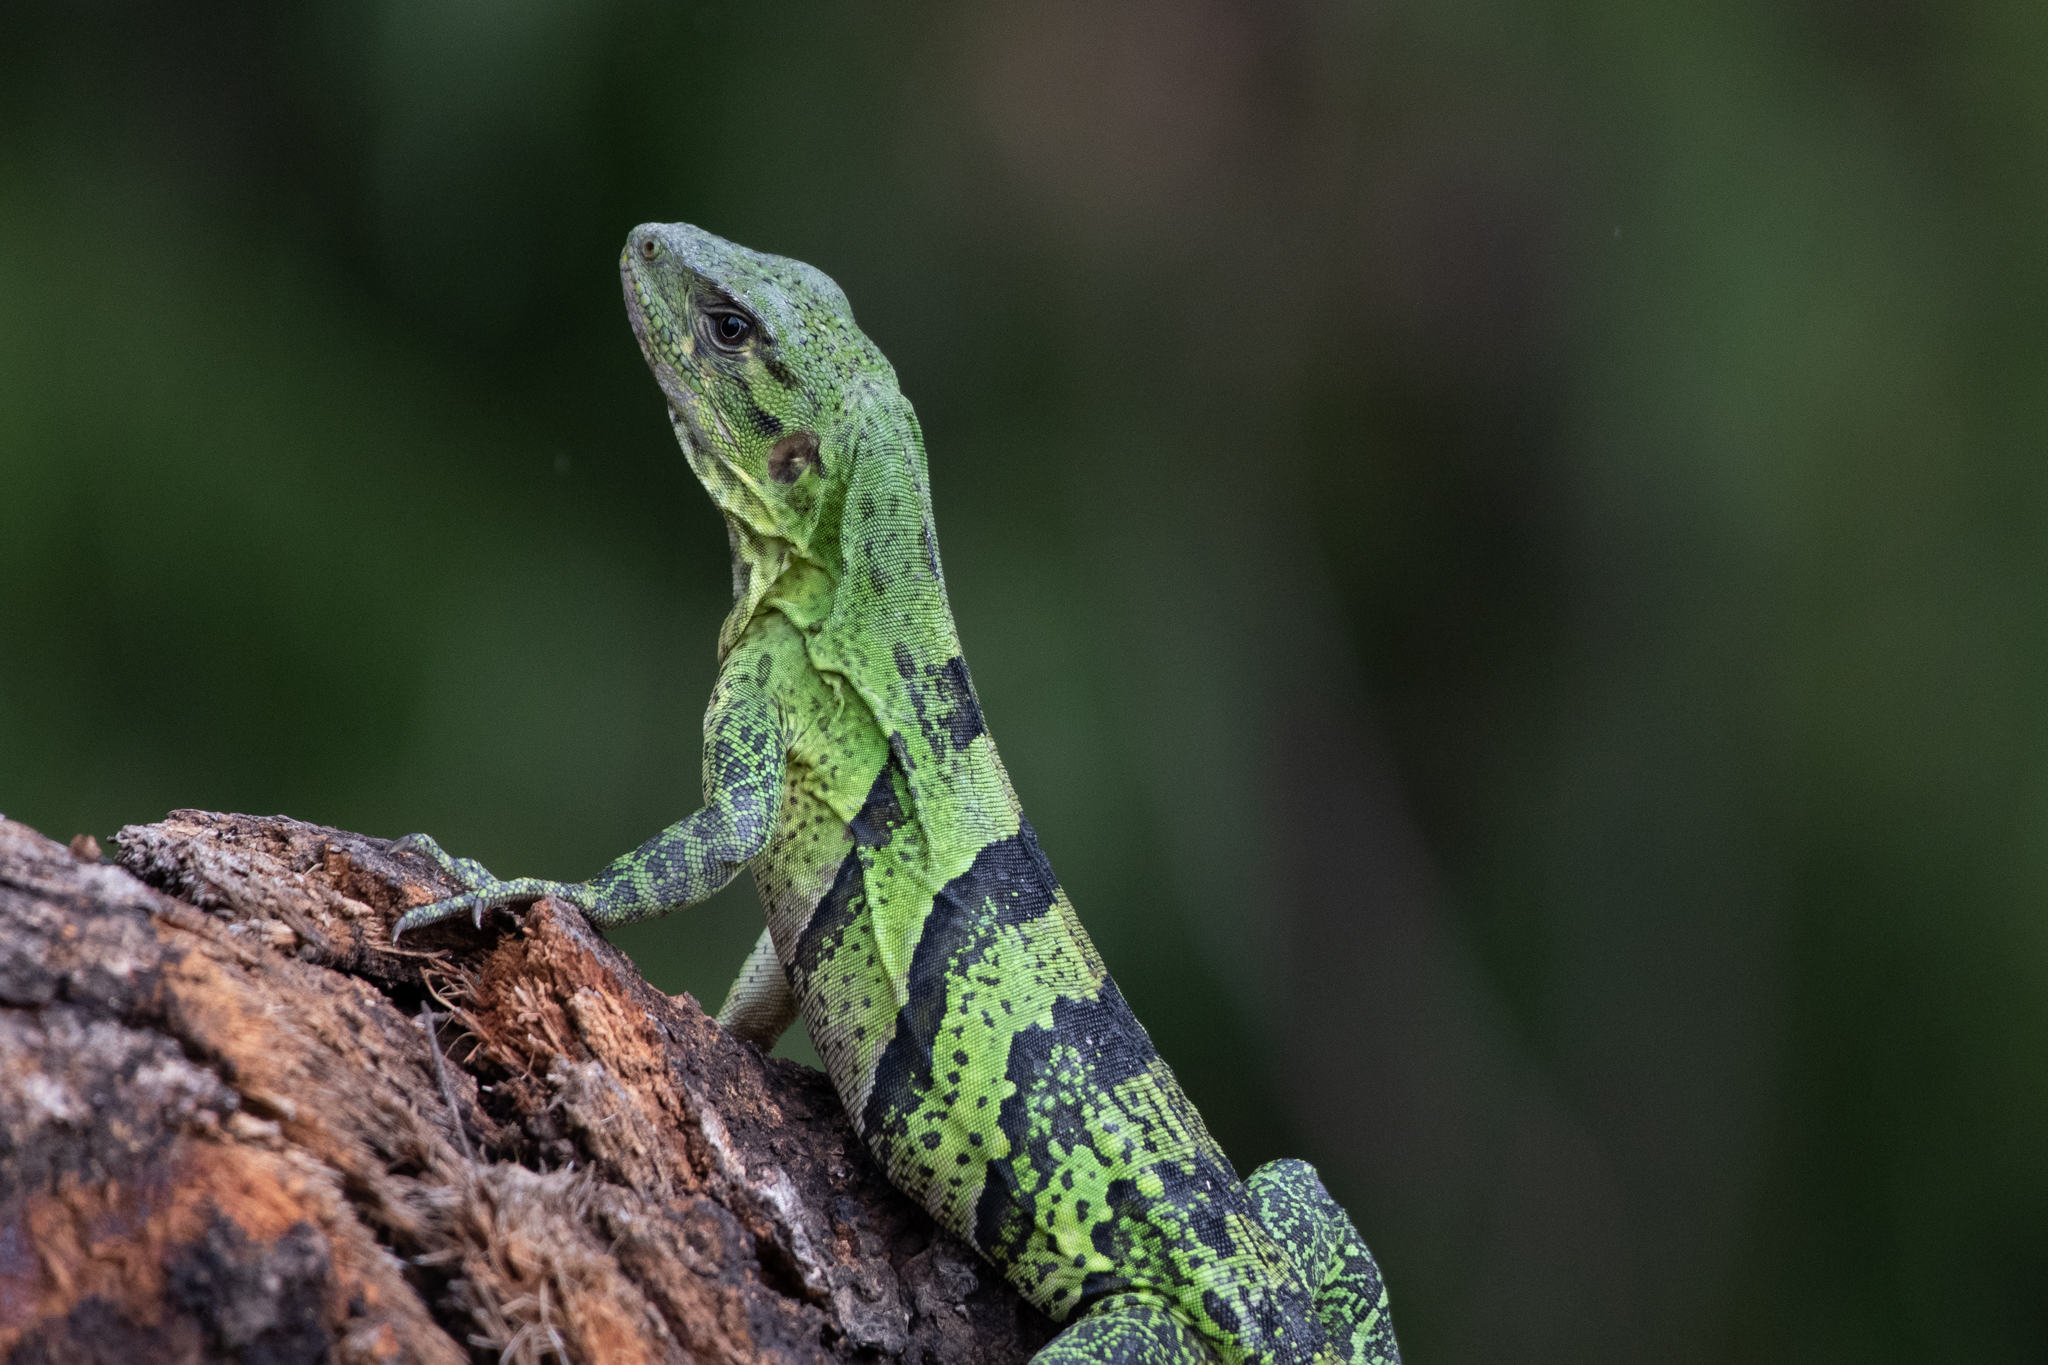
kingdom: Animalia
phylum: Chordata
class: Squamata
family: Iguanidae
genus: Ctenosaura
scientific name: Ctenosaura similis
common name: Black spiny-tailed iguana
